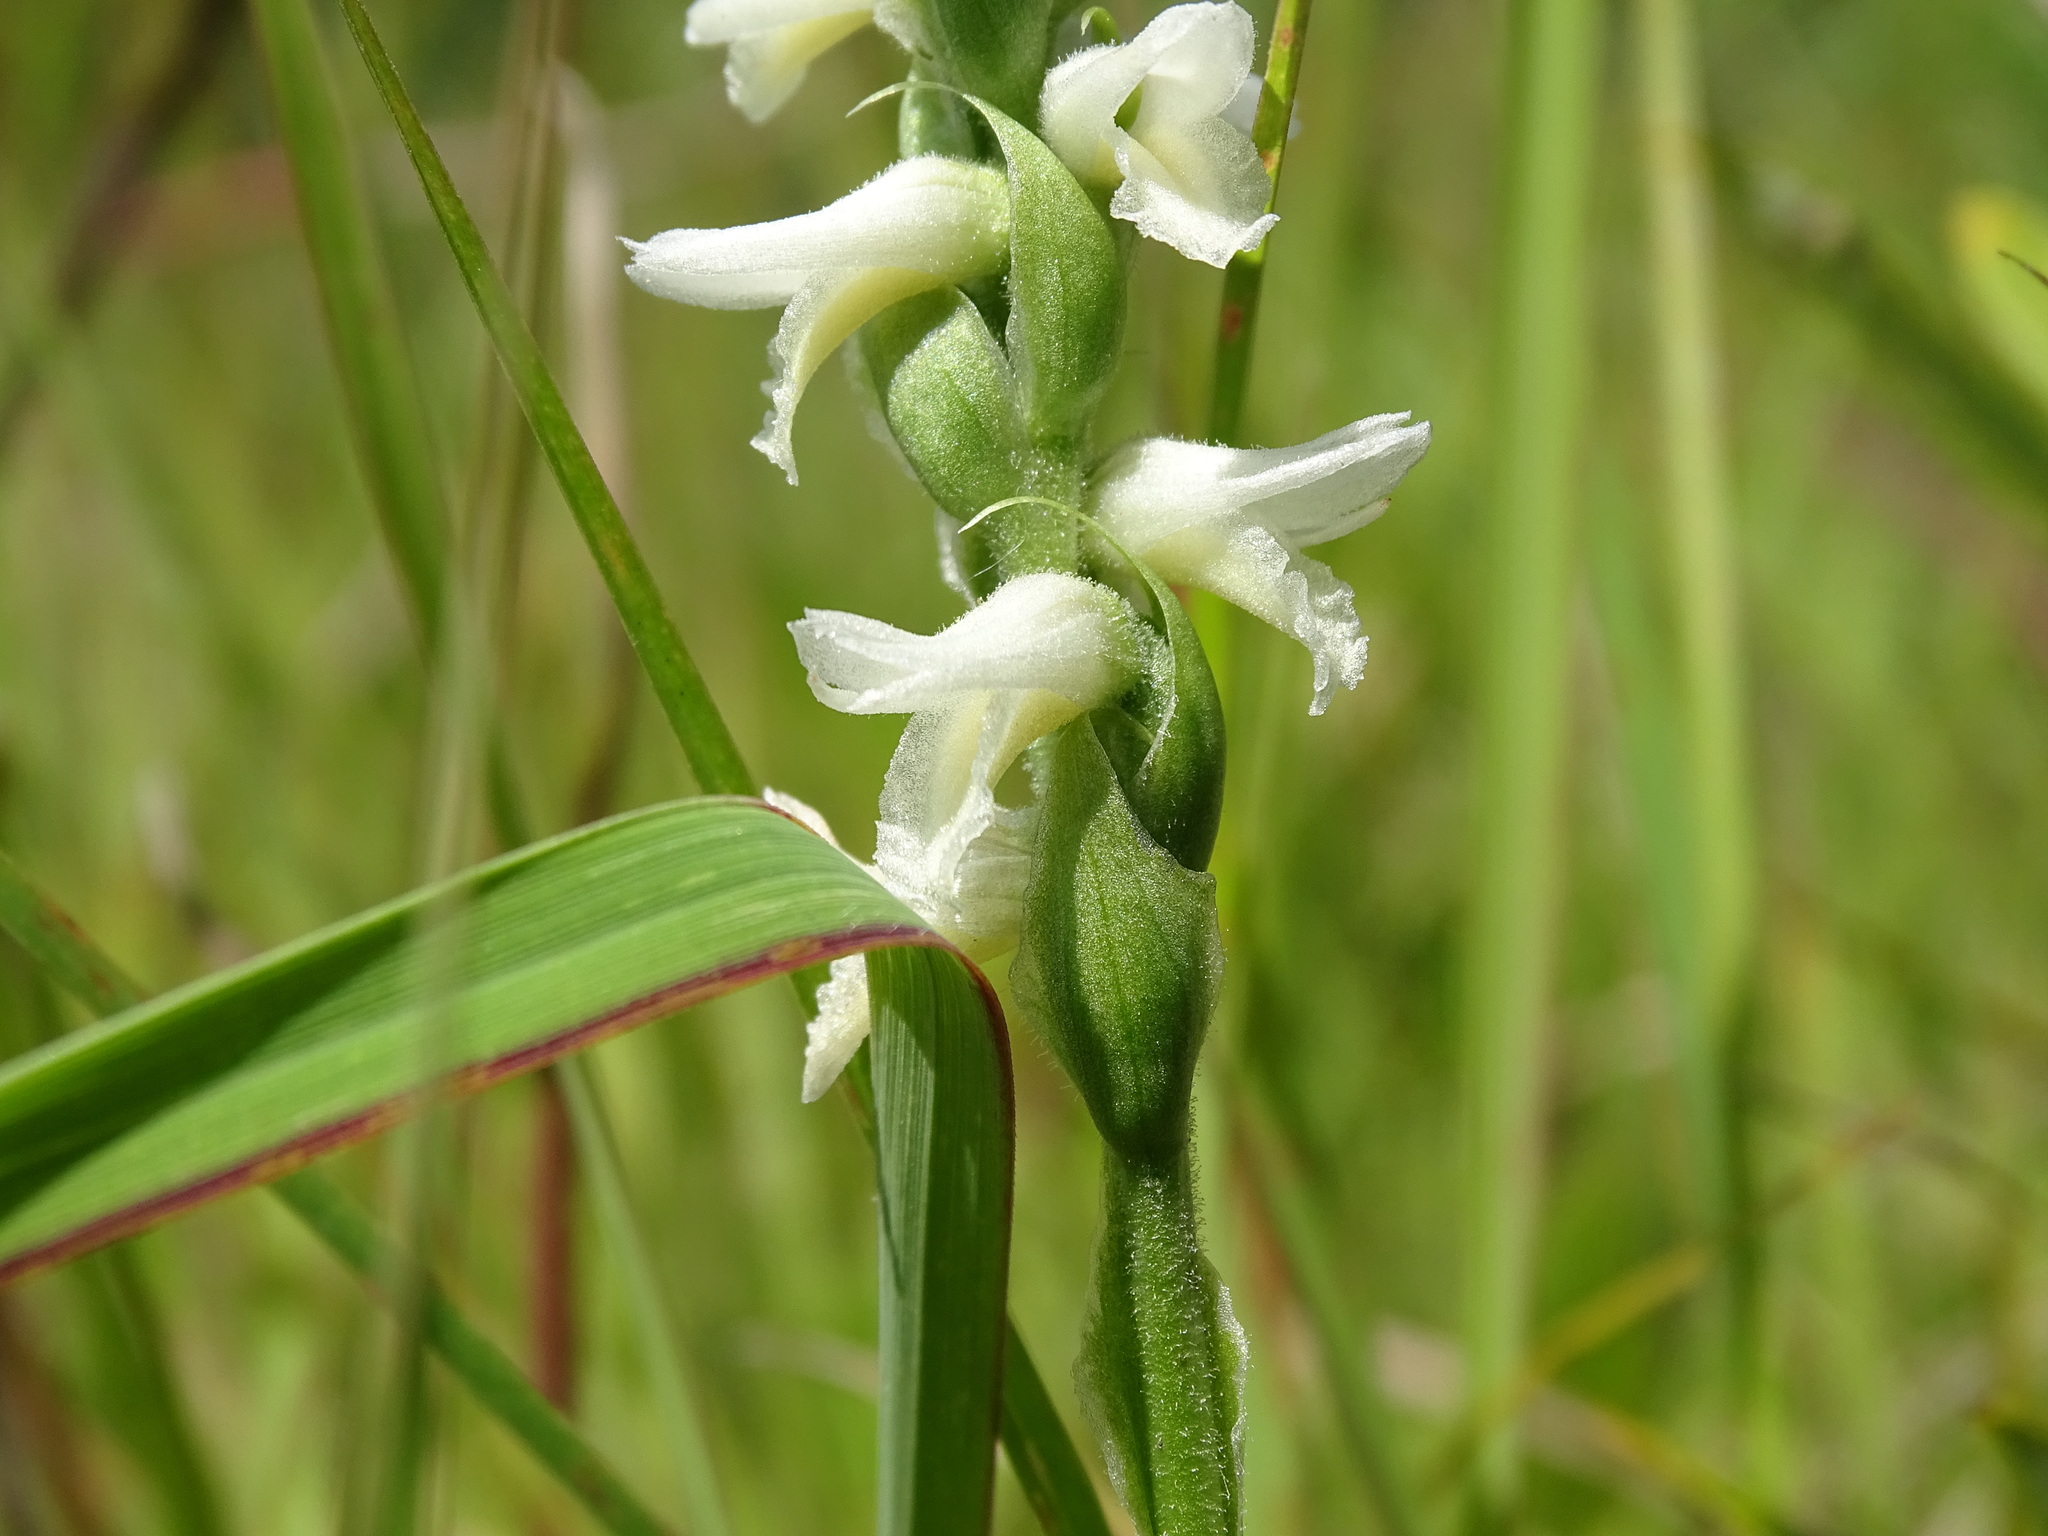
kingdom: Plantae
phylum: Tracheophyta
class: Liliopsida
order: Asparagales
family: Orchidaceae
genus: Spiranthes
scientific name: Spiranthes magnicamporum
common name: Great plains ladies'-tresses
